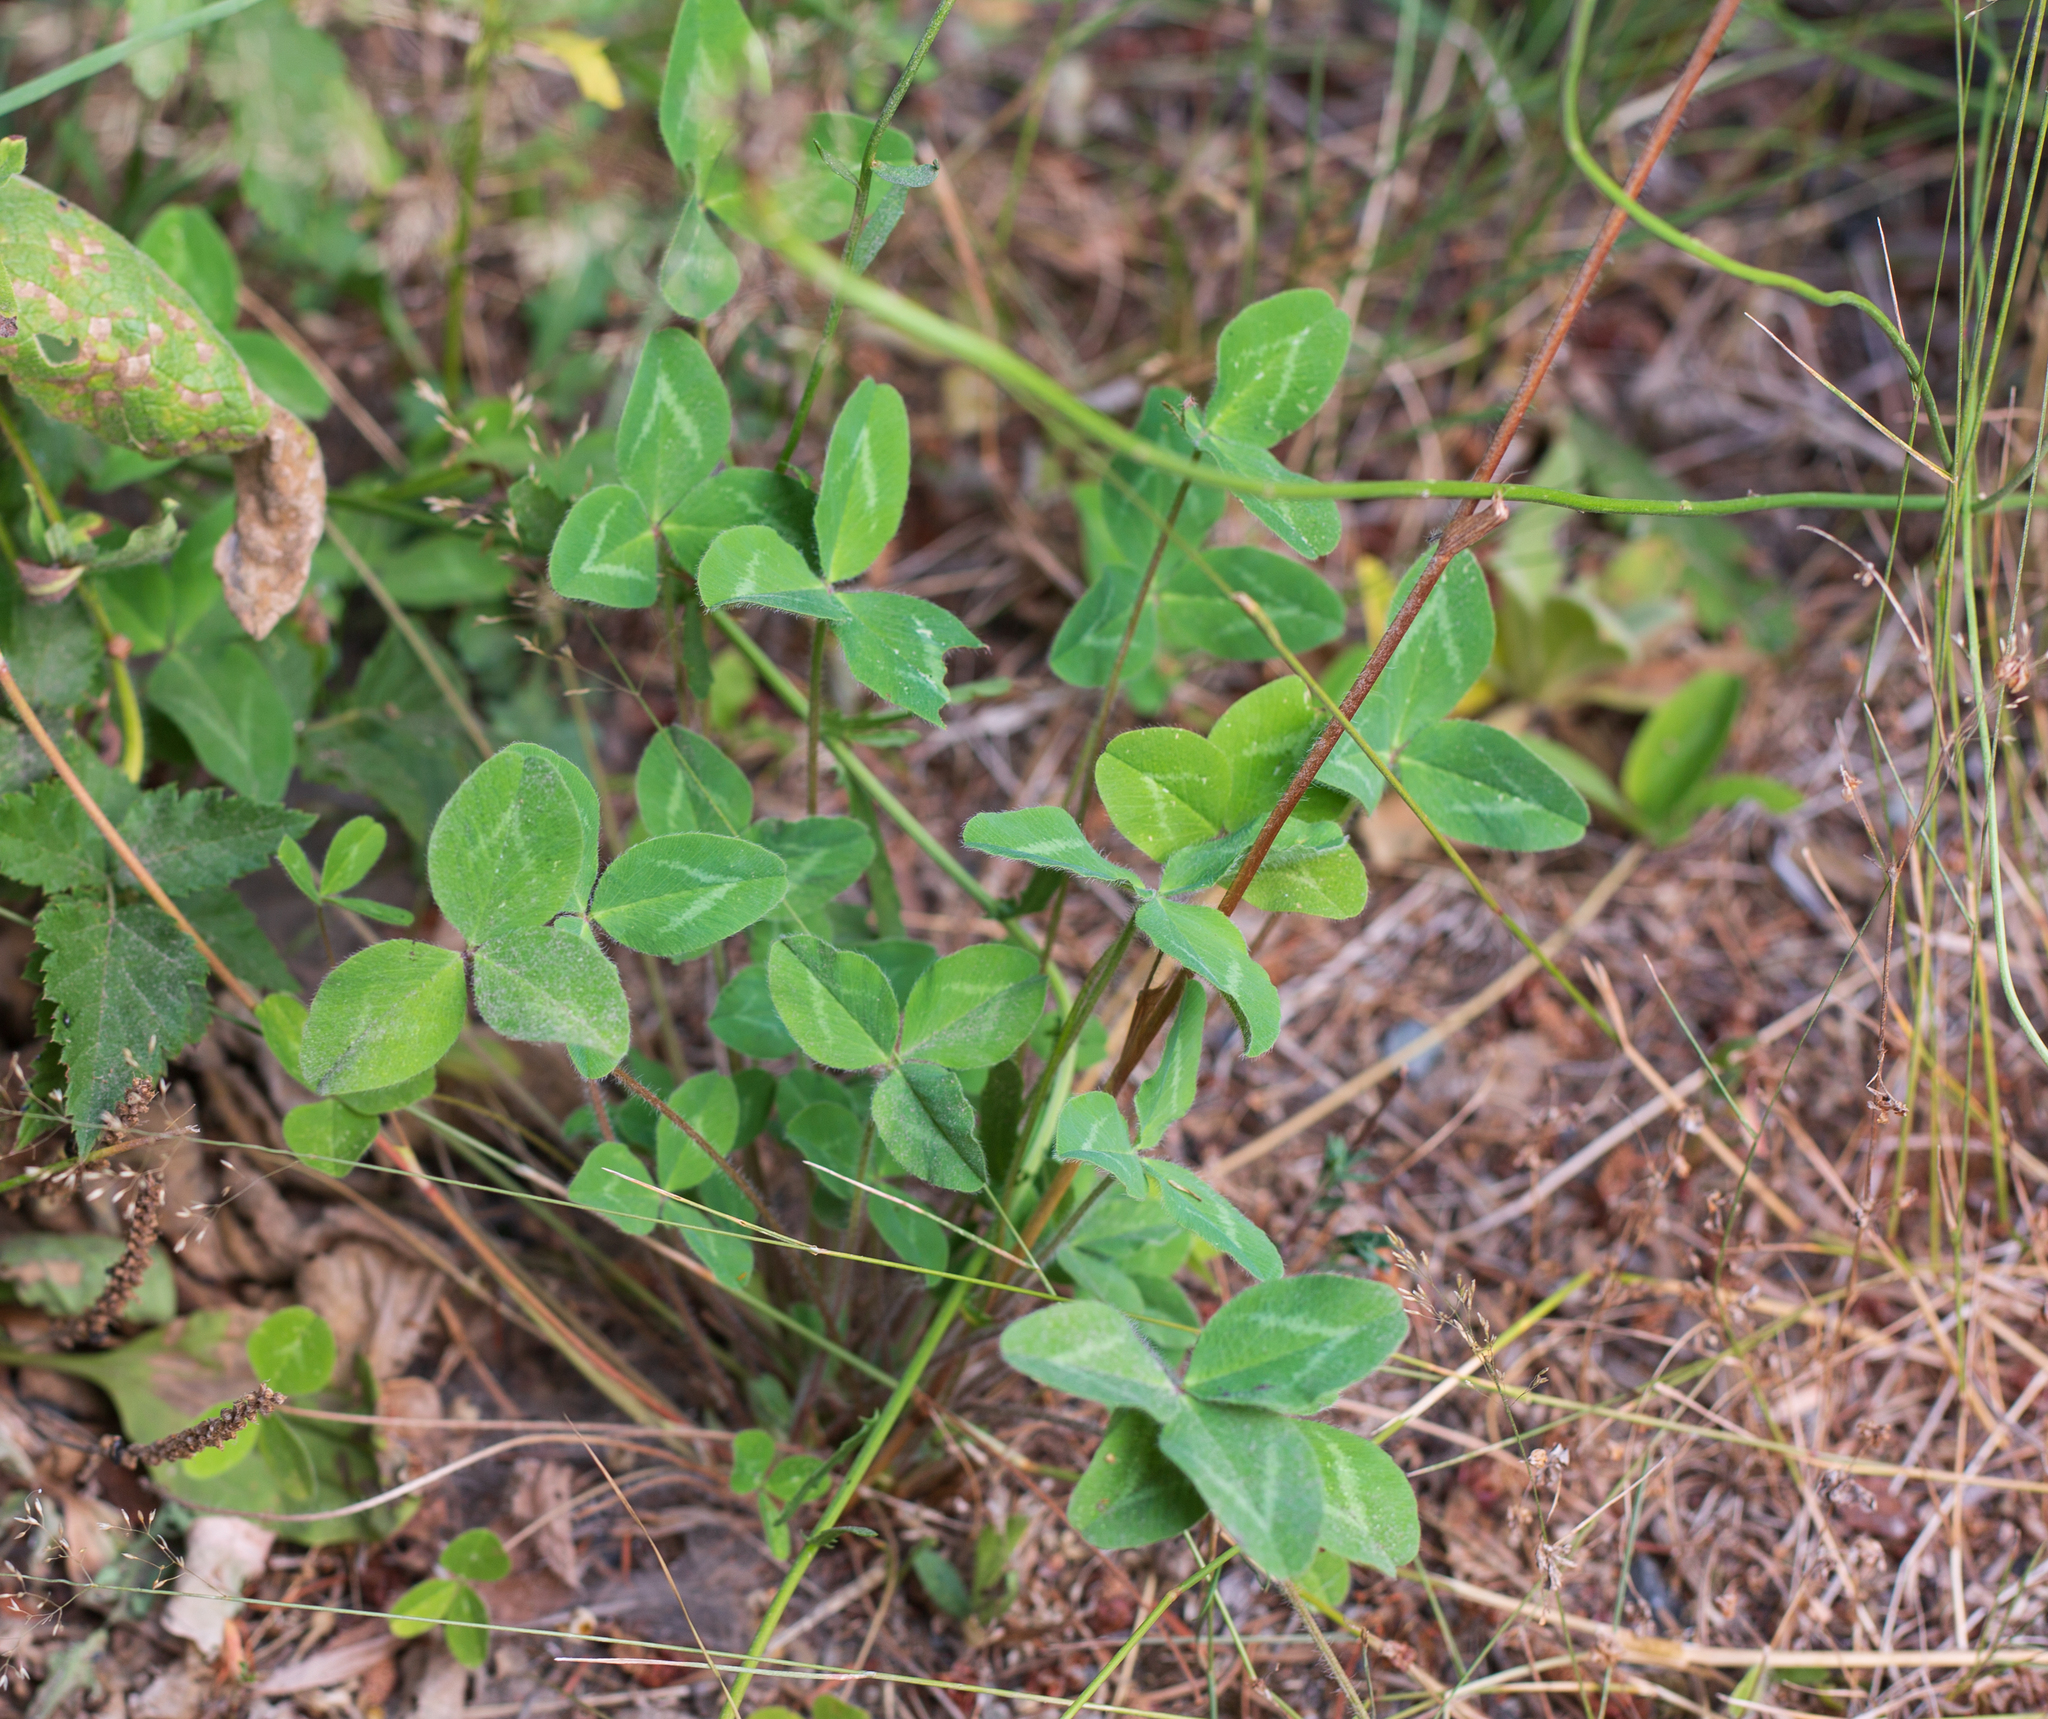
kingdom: Plantae
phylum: Tracheophyta
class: Magnoliopsida
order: Fabales
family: Fabaceae
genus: Trifolium
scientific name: Trifolium pratense
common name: Red clover
